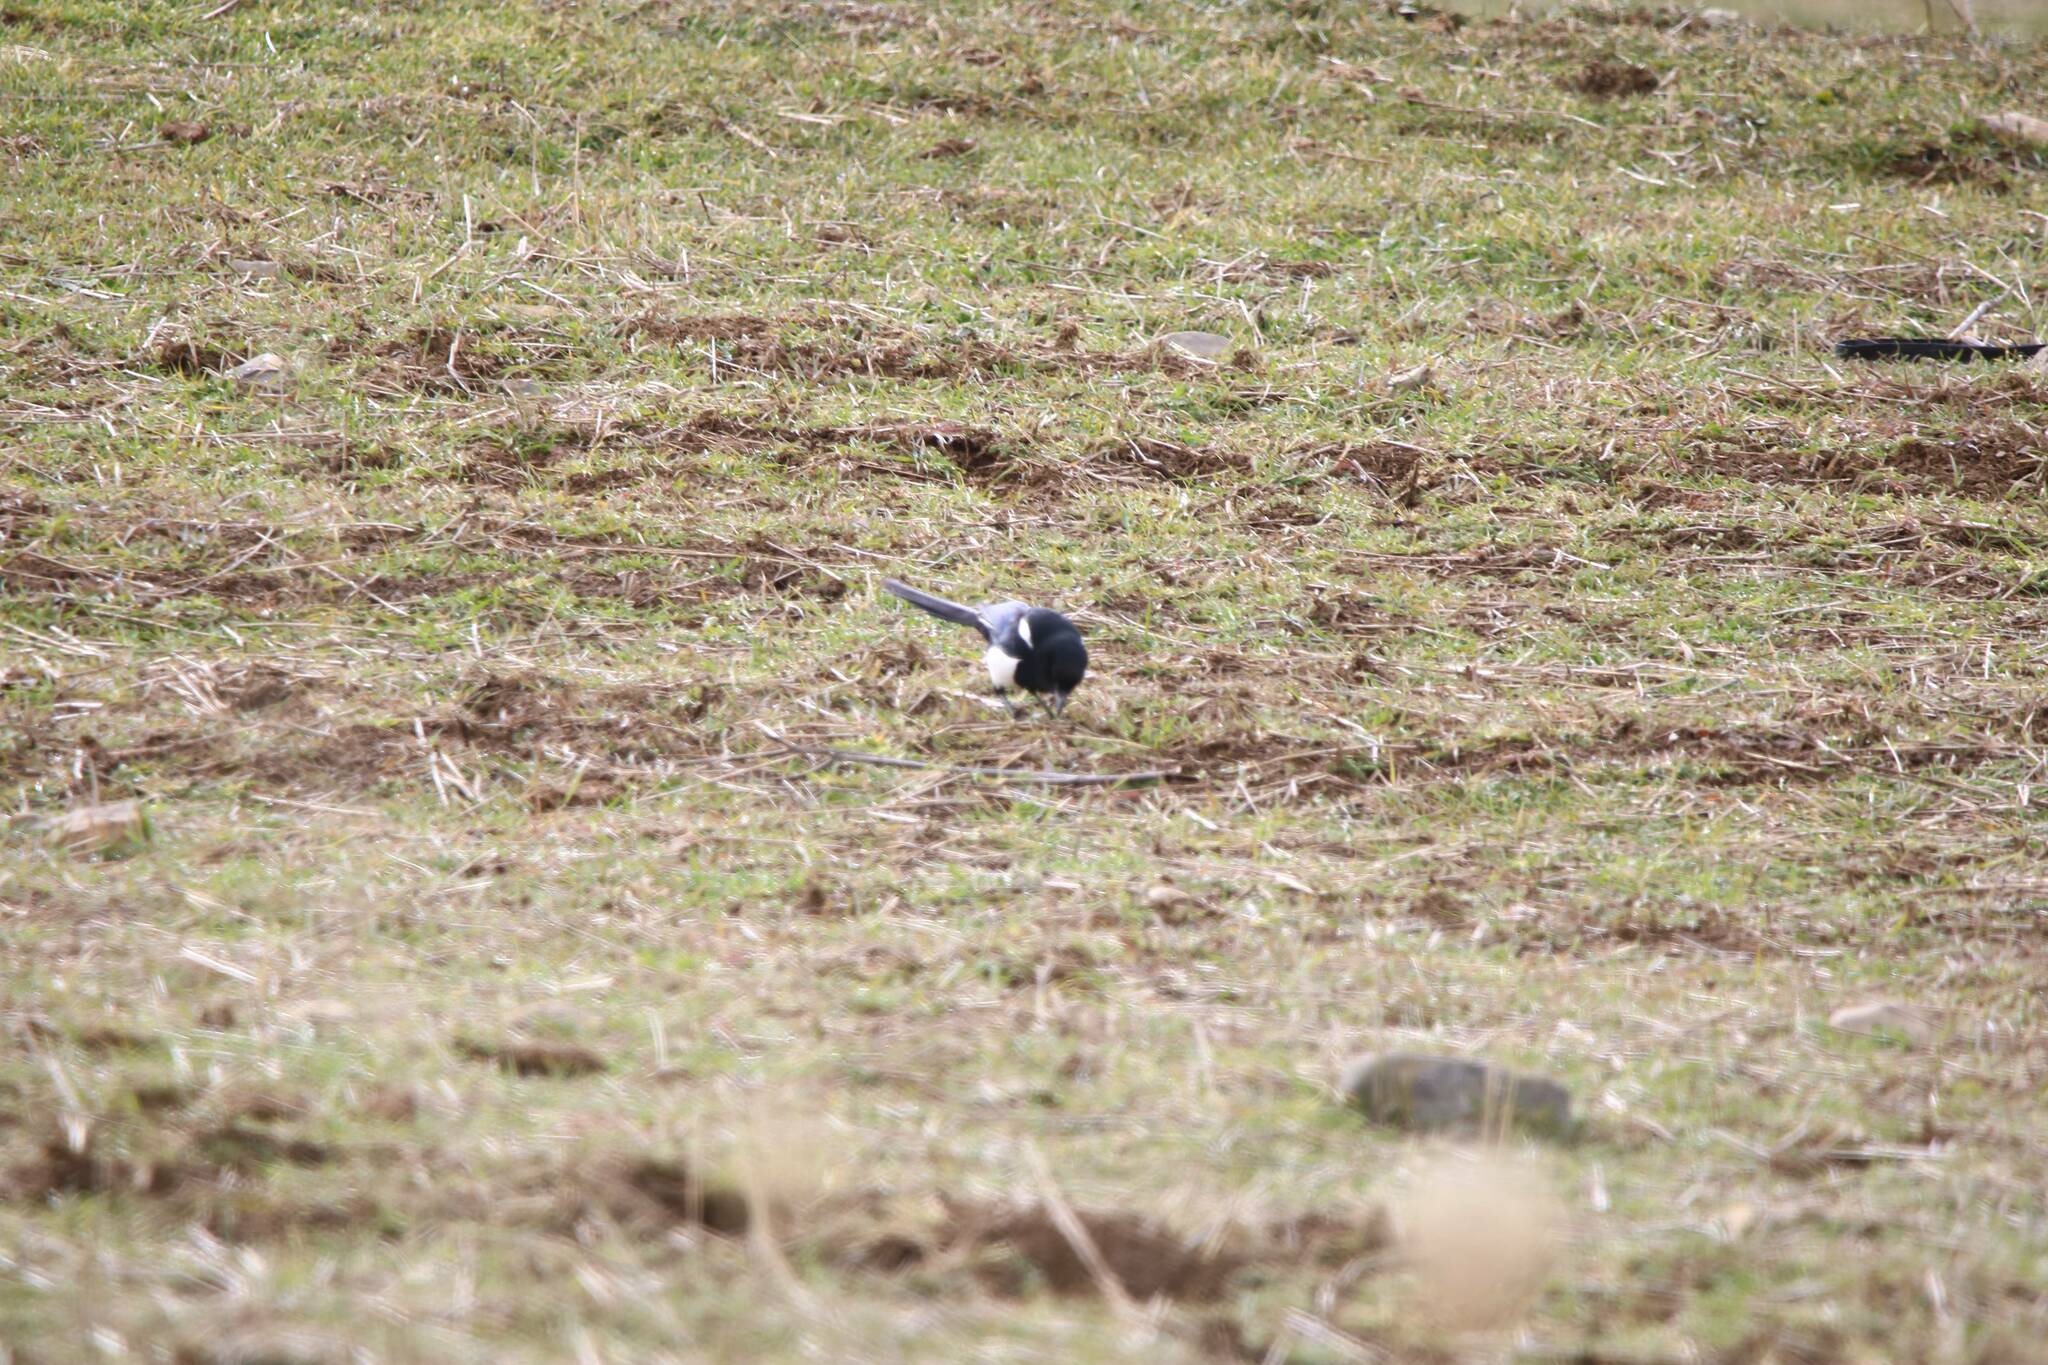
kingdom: Animalia
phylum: Chordata
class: Aves
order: Passeriformes
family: Corvidae
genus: Pica
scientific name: Pica mauritanica
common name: Maghreb magpie
